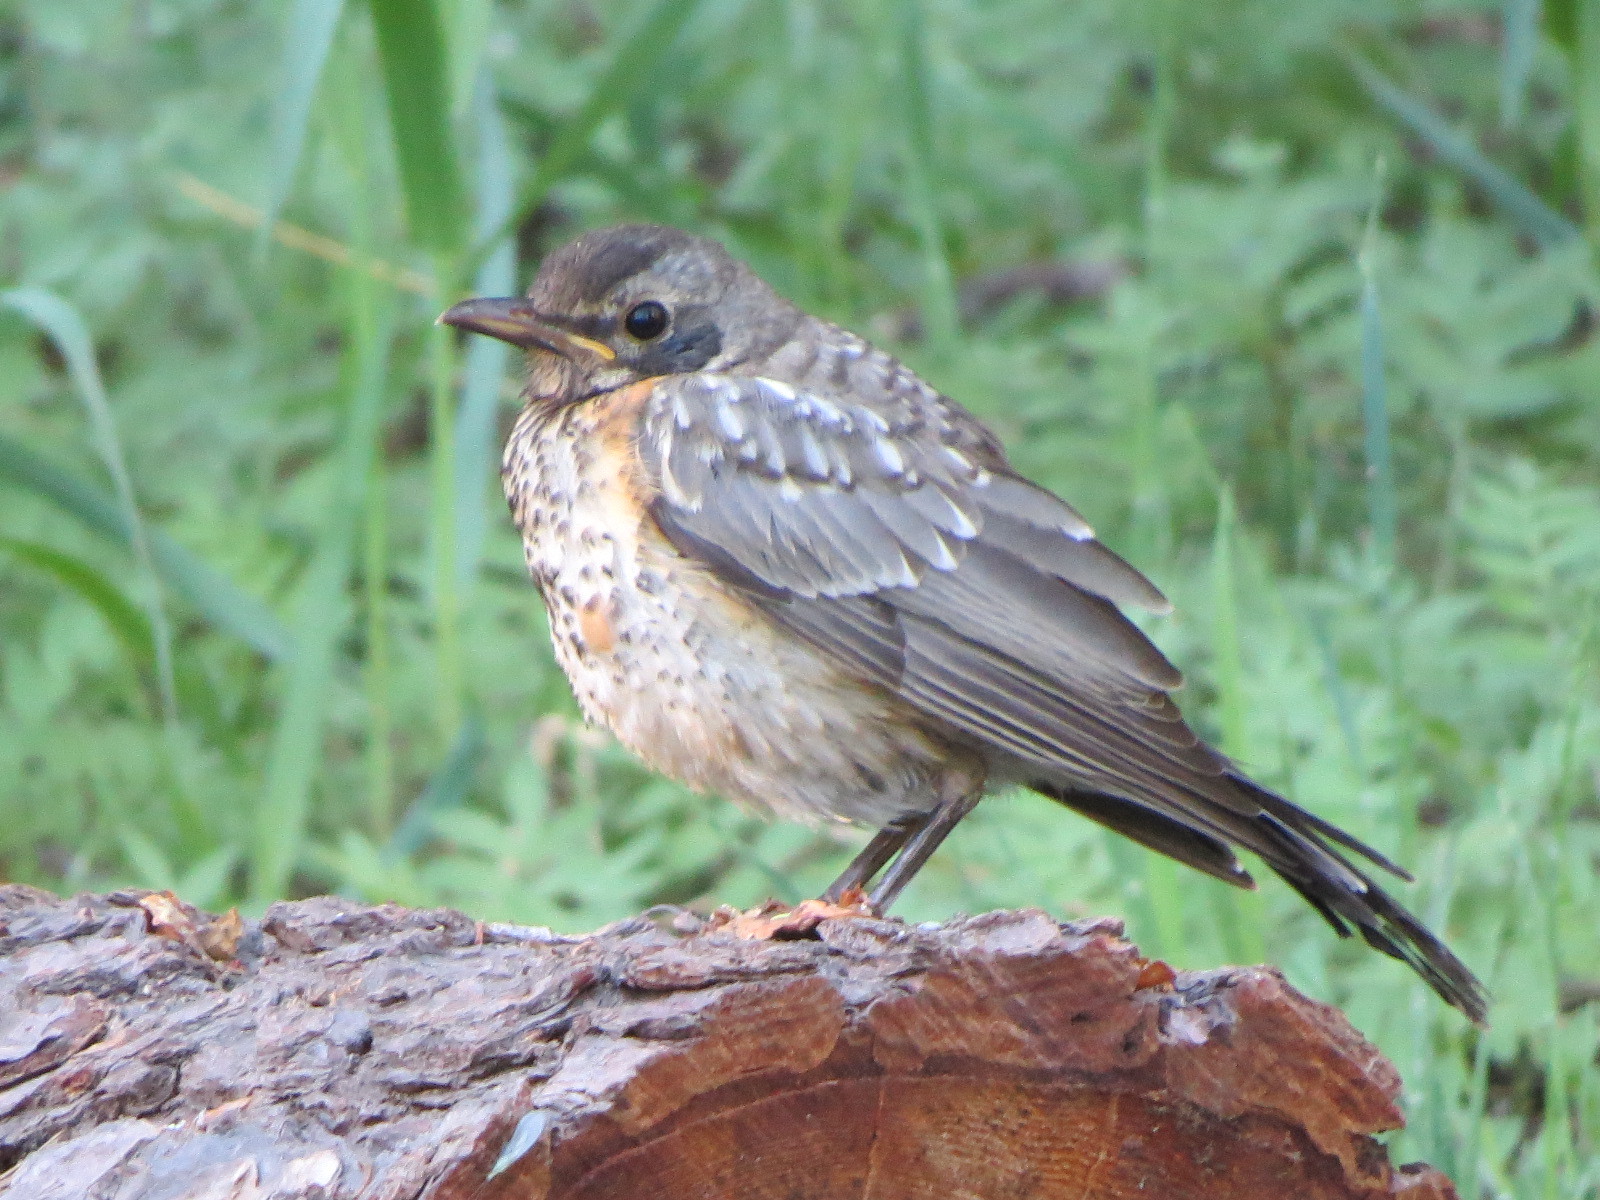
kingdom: Animalia
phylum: Chordata
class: Aves
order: Passeriformes
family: Turdidae
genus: Turdus
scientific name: Turdus migratorius
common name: American robin
